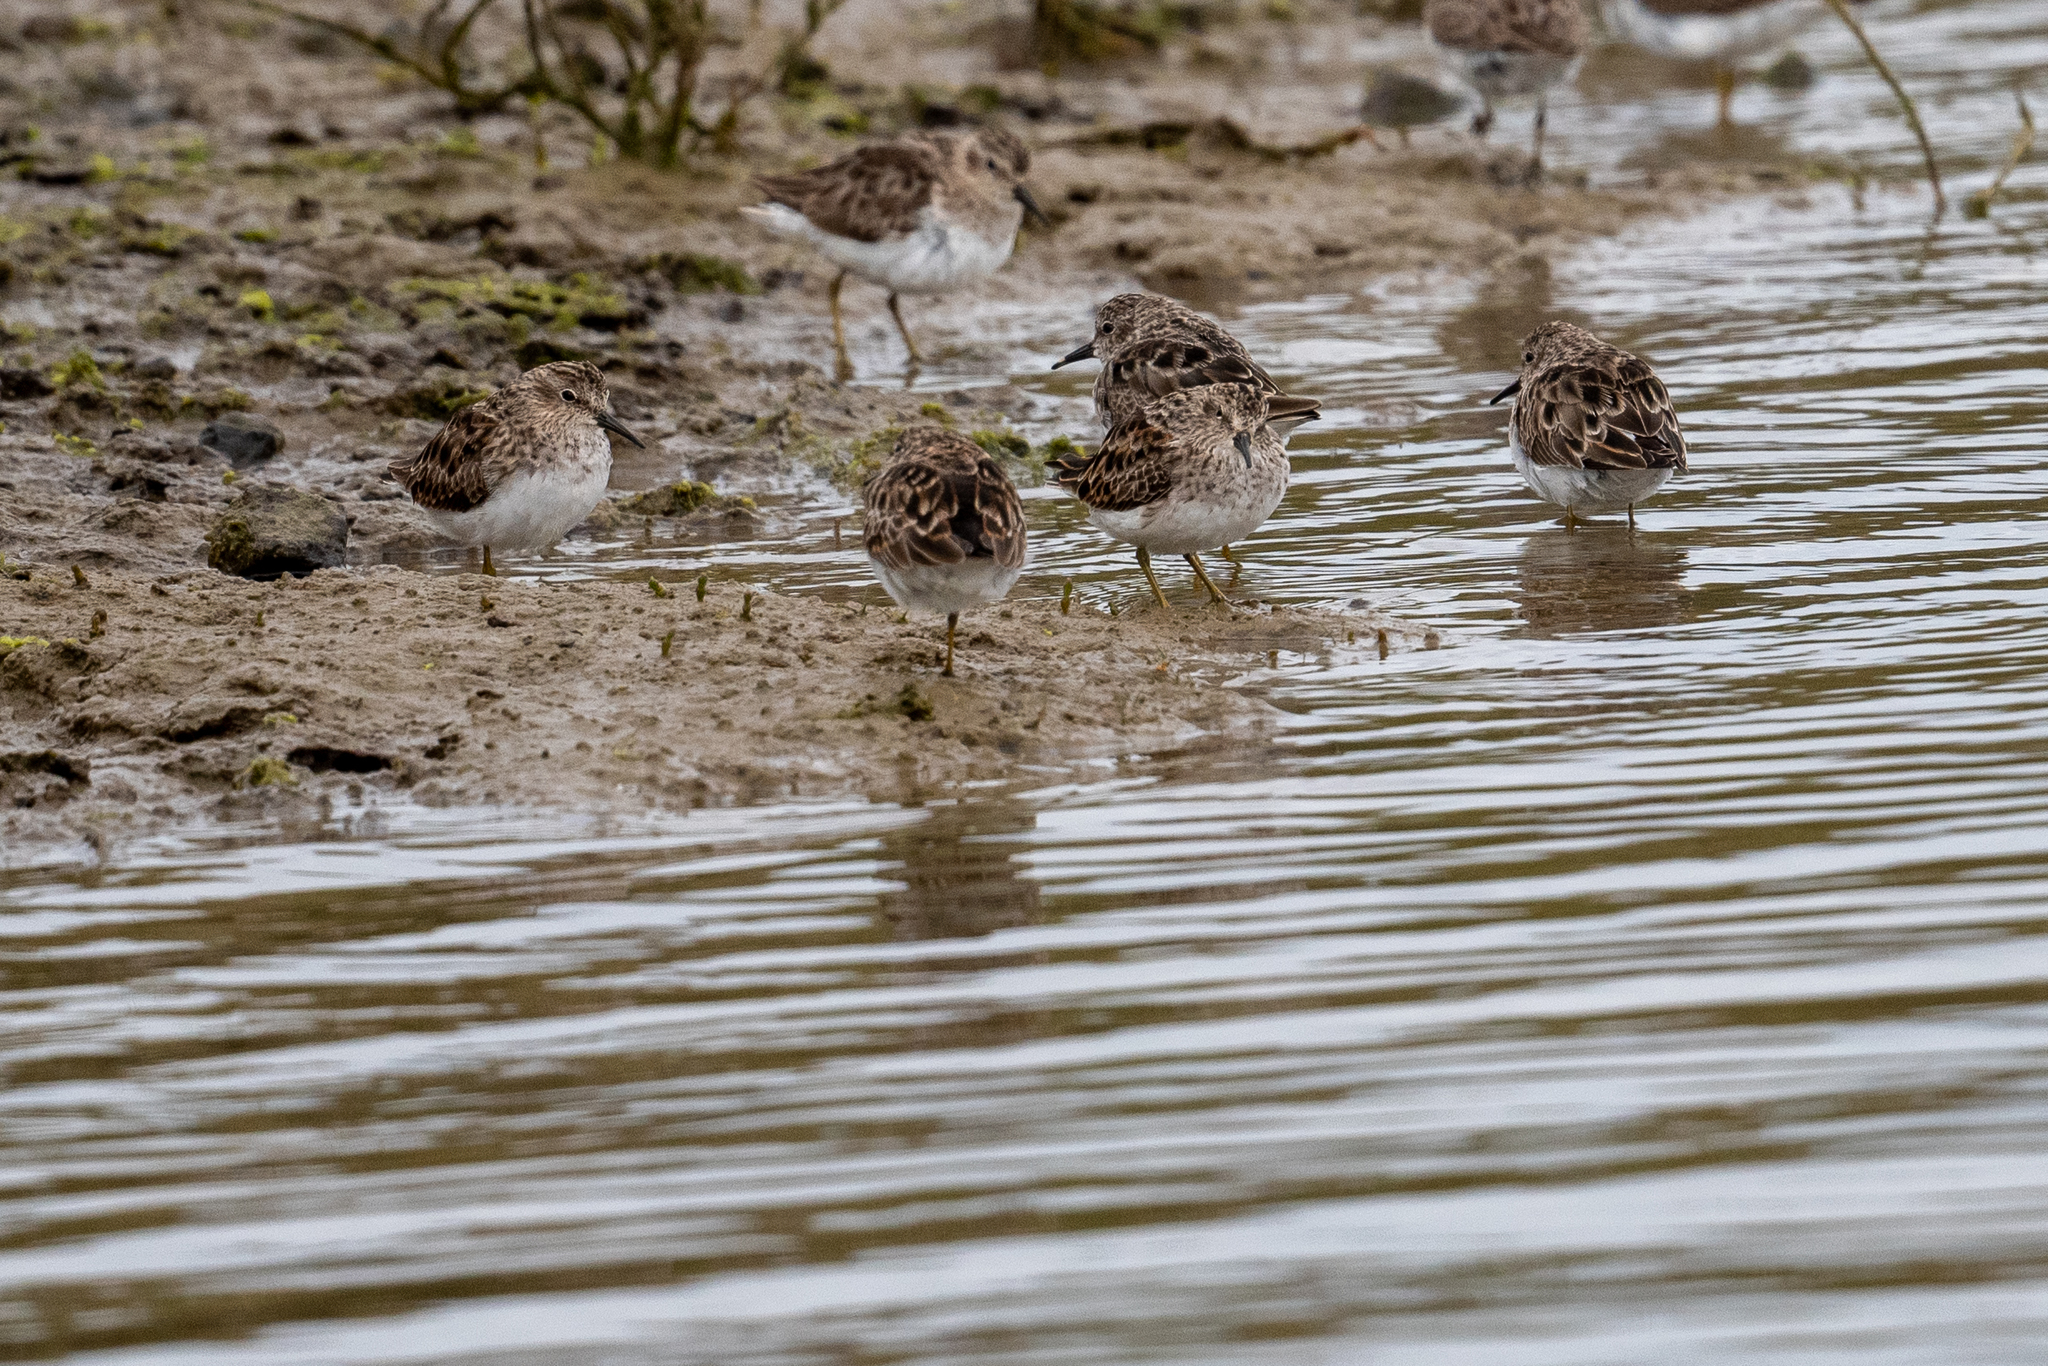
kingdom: Animalia
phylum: Chordata
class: Aves
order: Charadriiformes
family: Scolopacidae
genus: Calidris
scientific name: Calidris minutilla
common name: Least sandpiper
